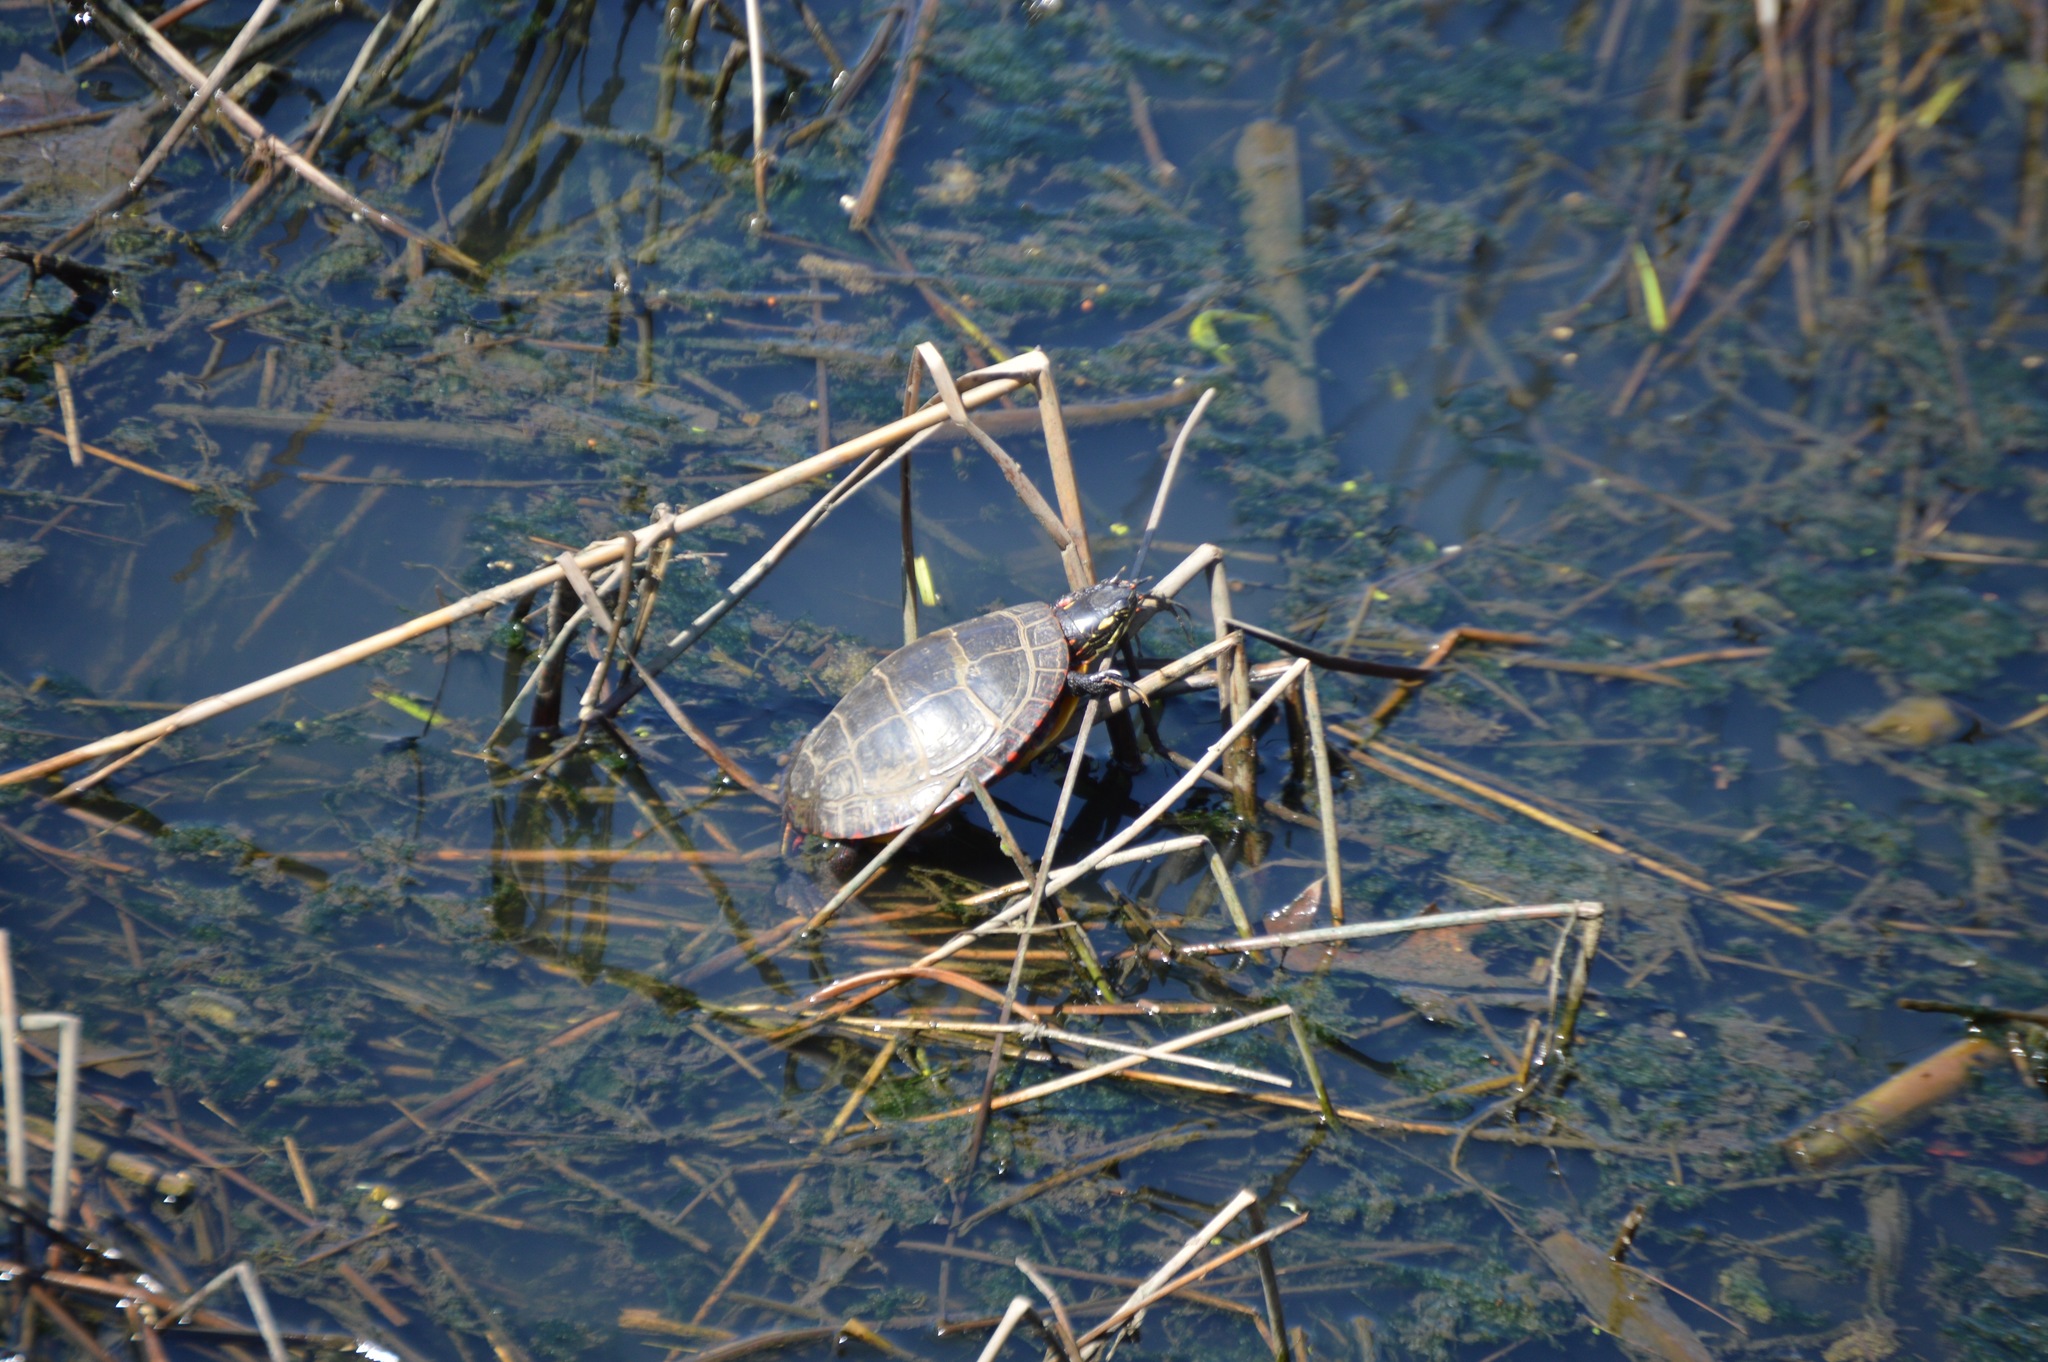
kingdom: Animalia
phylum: Chordata
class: Testudines
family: Emydidae
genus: Chrysemys
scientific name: Chrysemys picta
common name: Painted turtle
